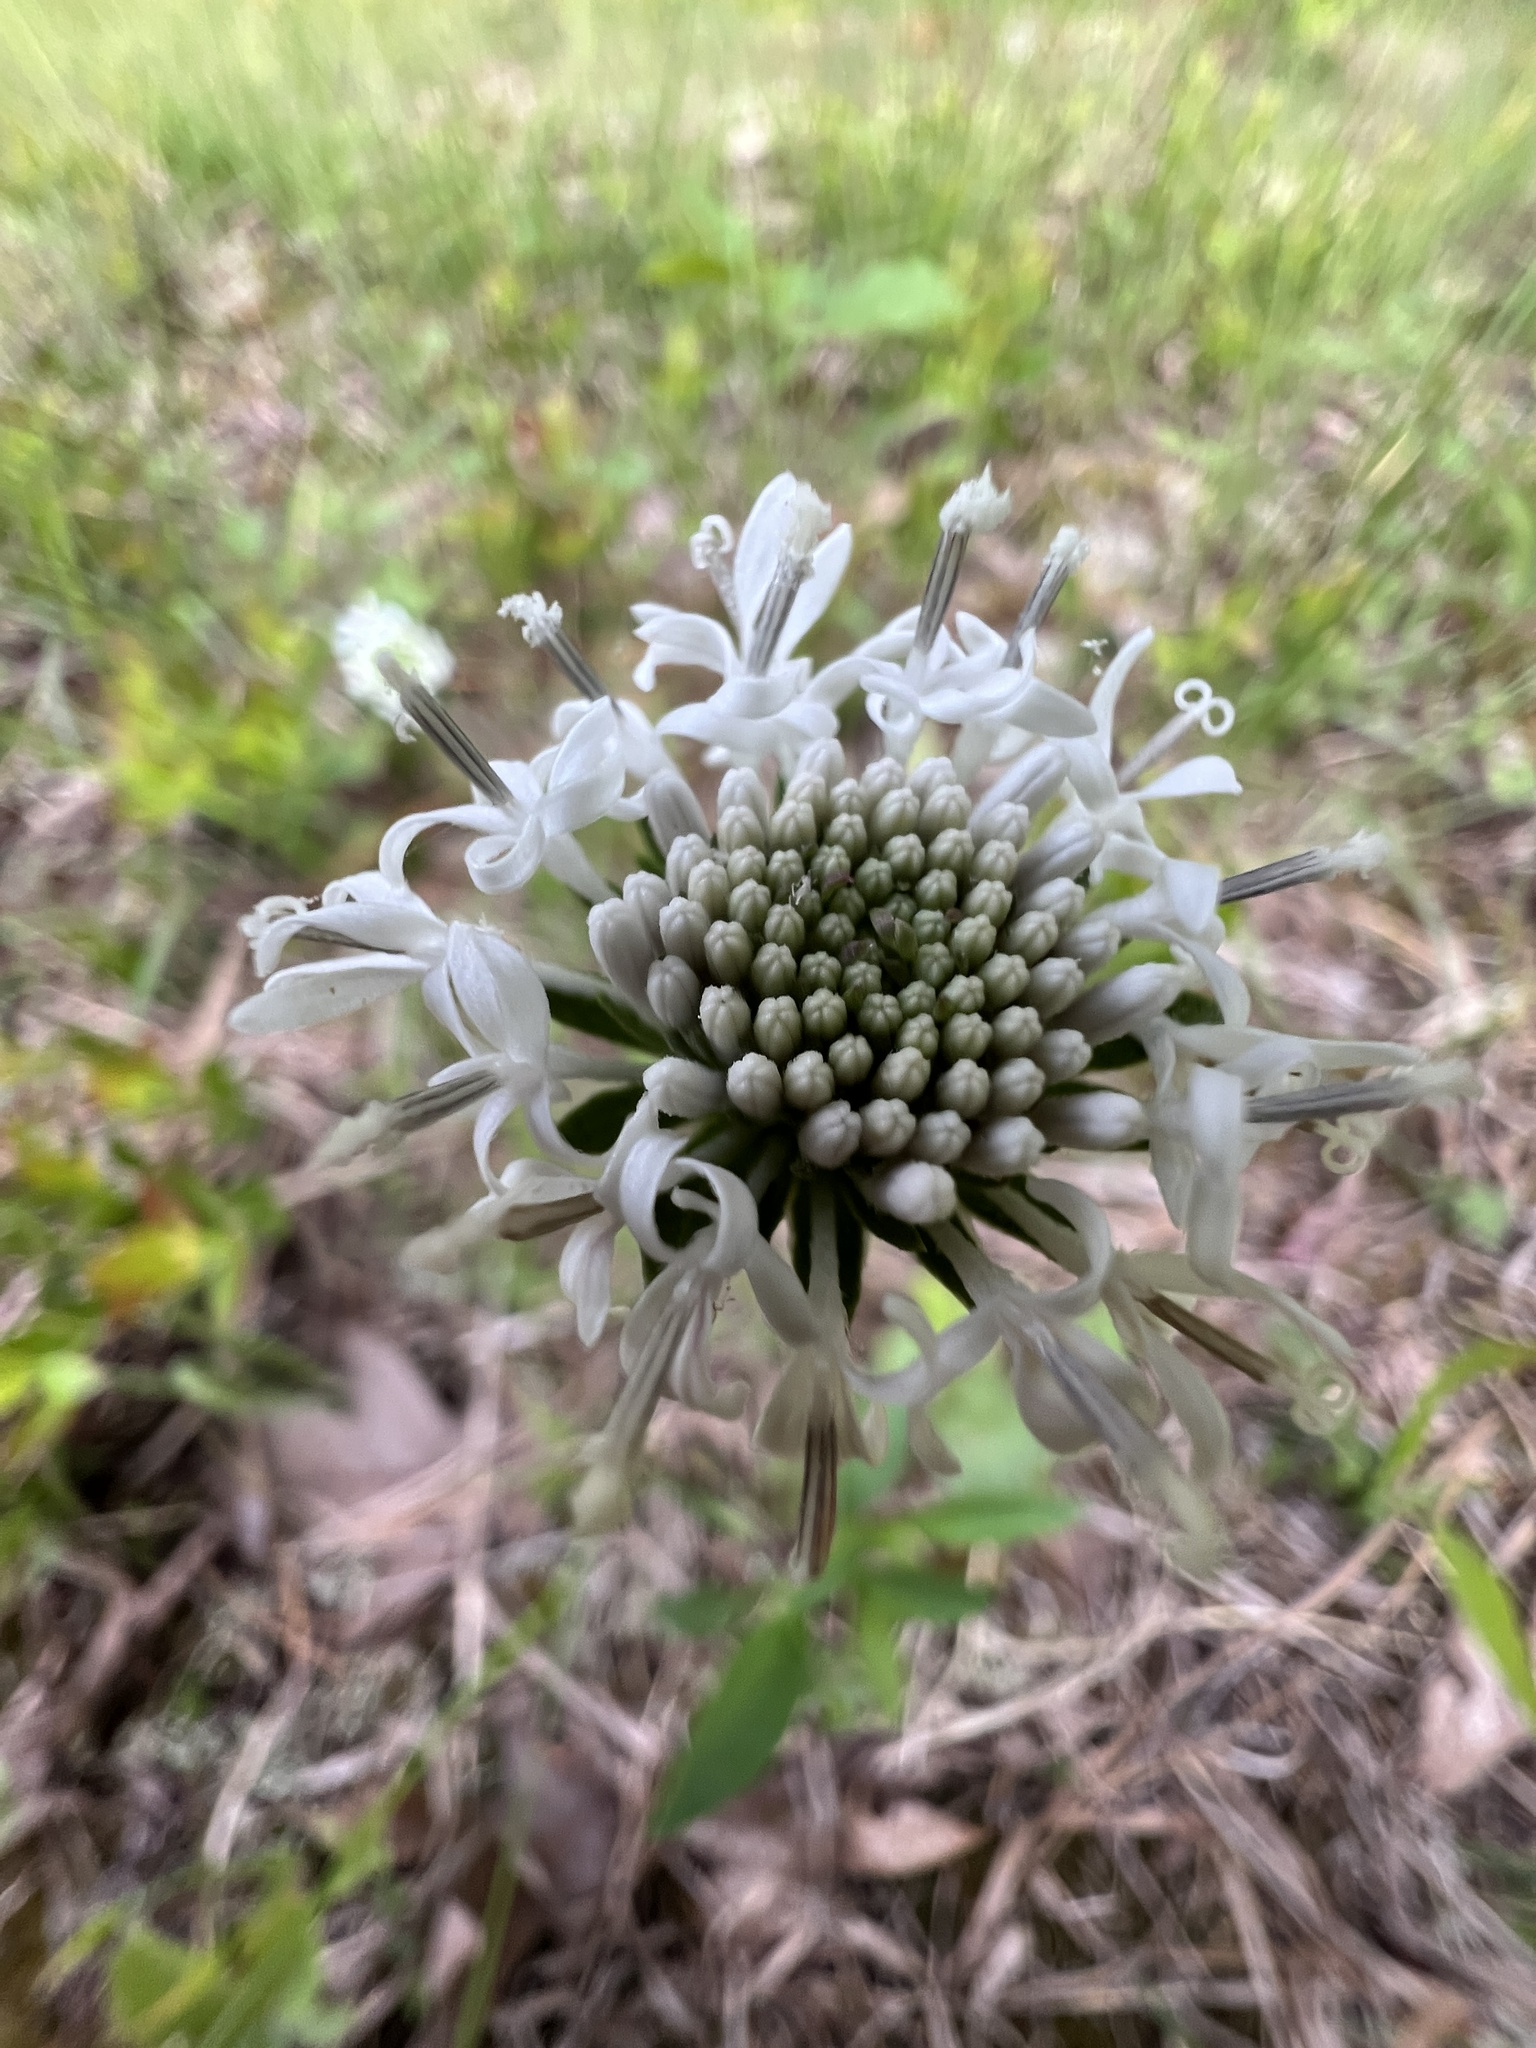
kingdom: Plantae
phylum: Tracheophyta
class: Magnoliopsida
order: Asterales
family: Asteraceae
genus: Marshallia
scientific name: Marshallia obovata
